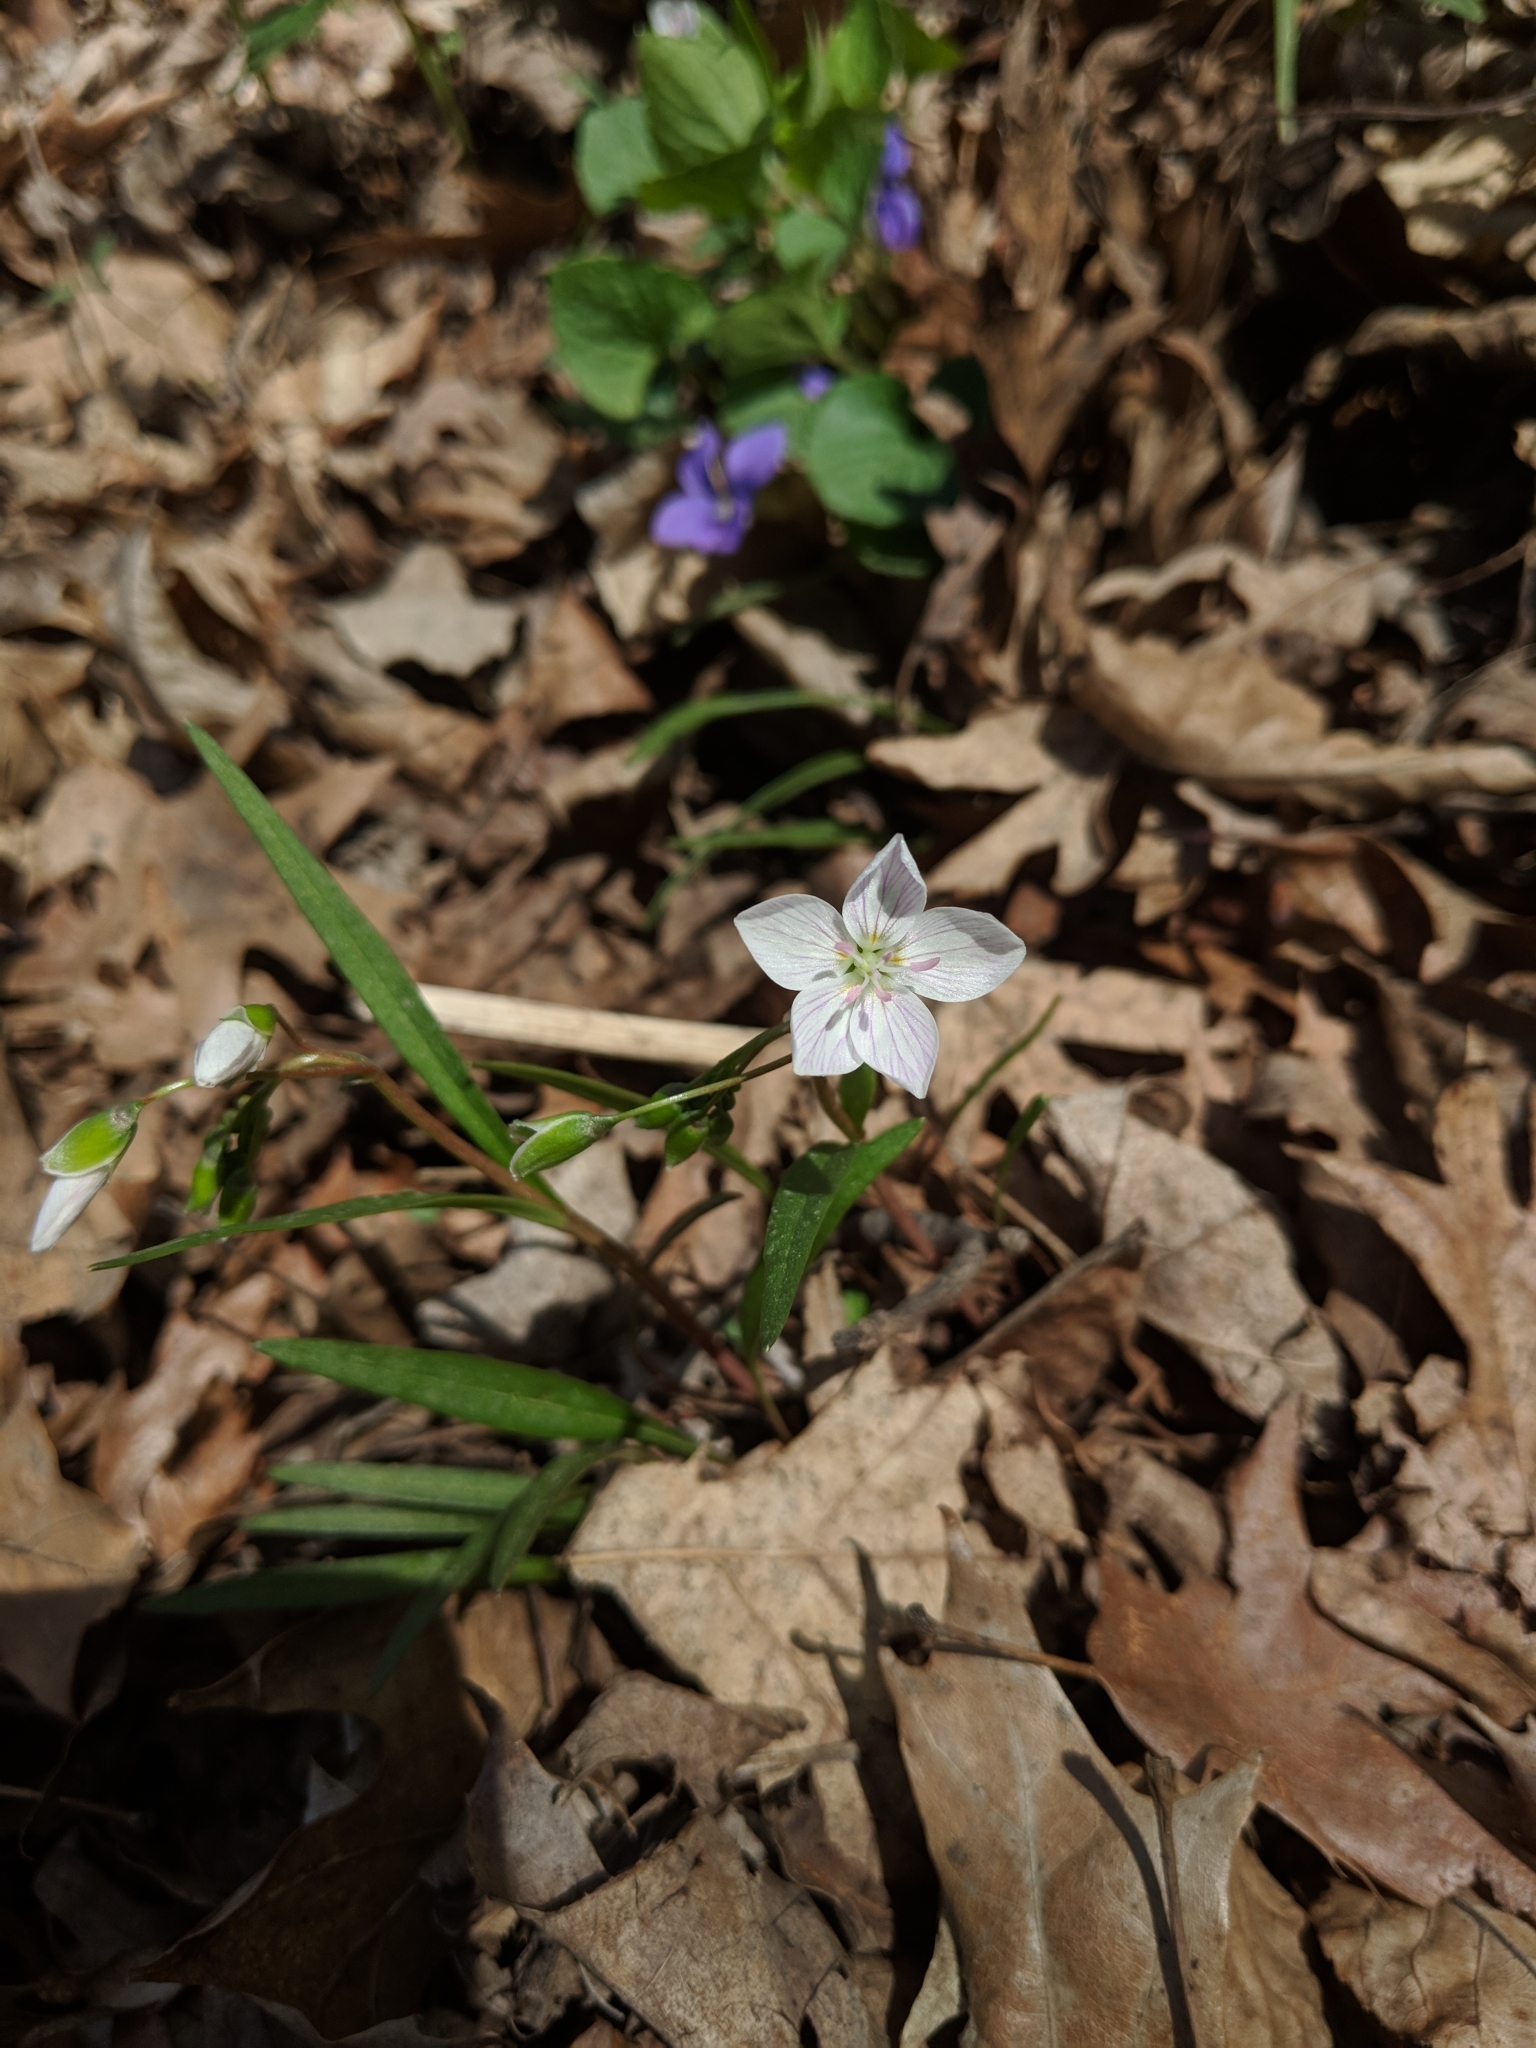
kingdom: Plantae
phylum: Tracheophyta
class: Magnoliopsida
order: Caryophyllales
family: Montiaceae
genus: Claytonia
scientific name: Claytonia virginica
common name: Virginia springbeauty
